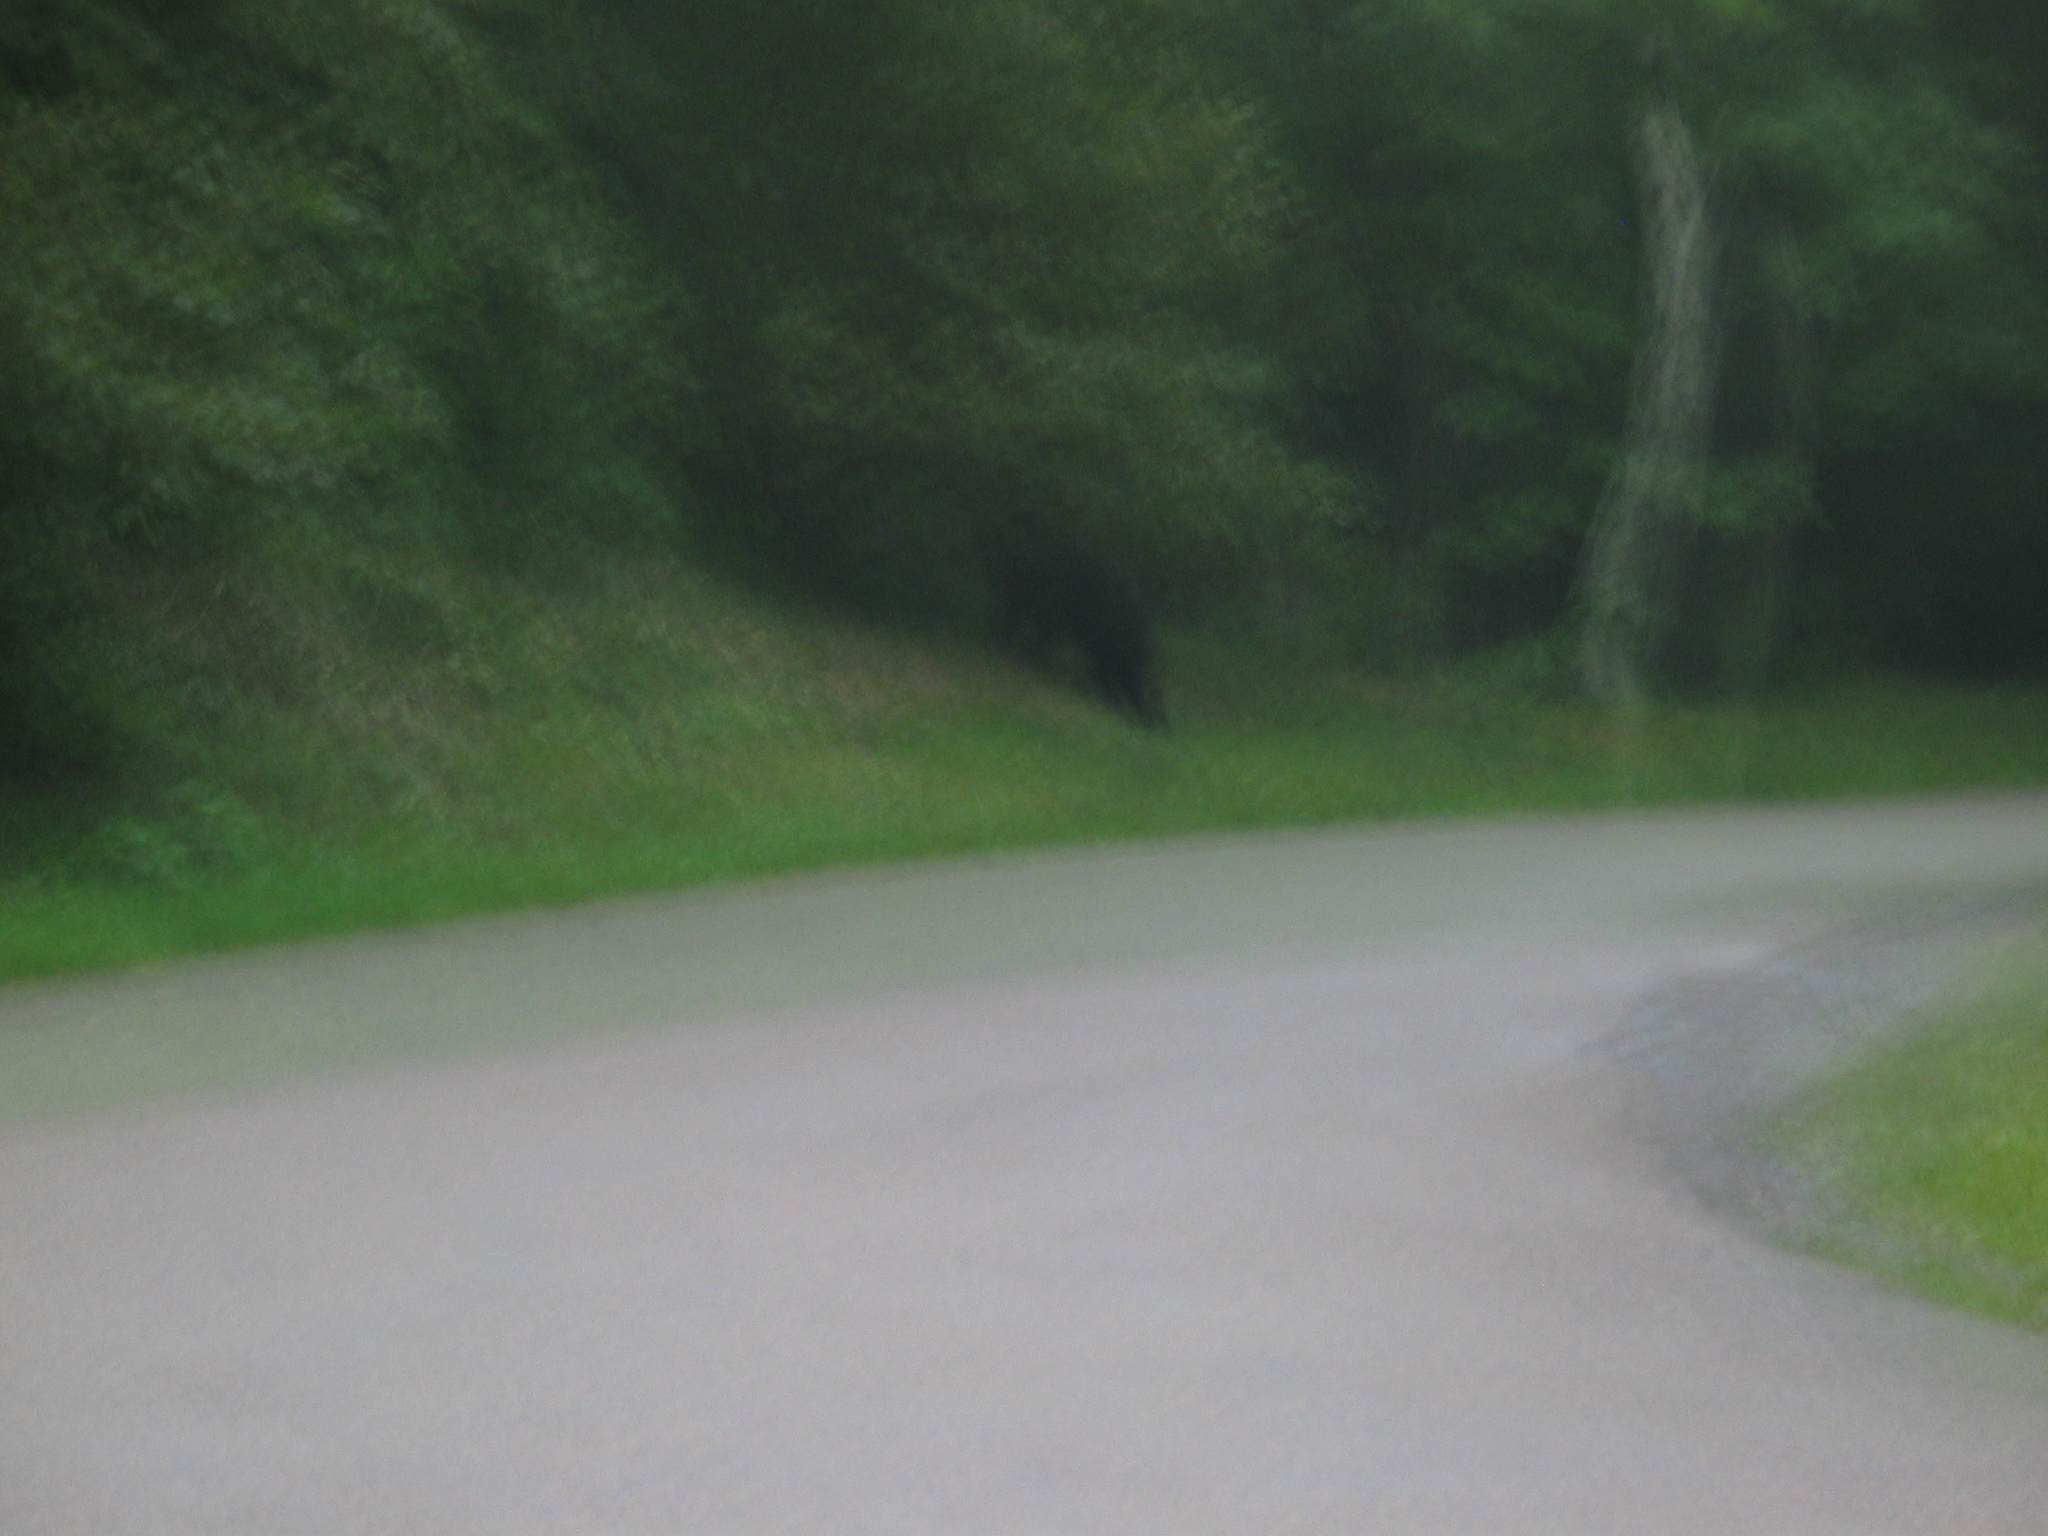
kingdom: Animalia
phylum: Chordata
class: Mammalia
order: Carnivora
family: Ursidae
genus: Ursus
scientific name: Ursus americanus
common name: American black bear
